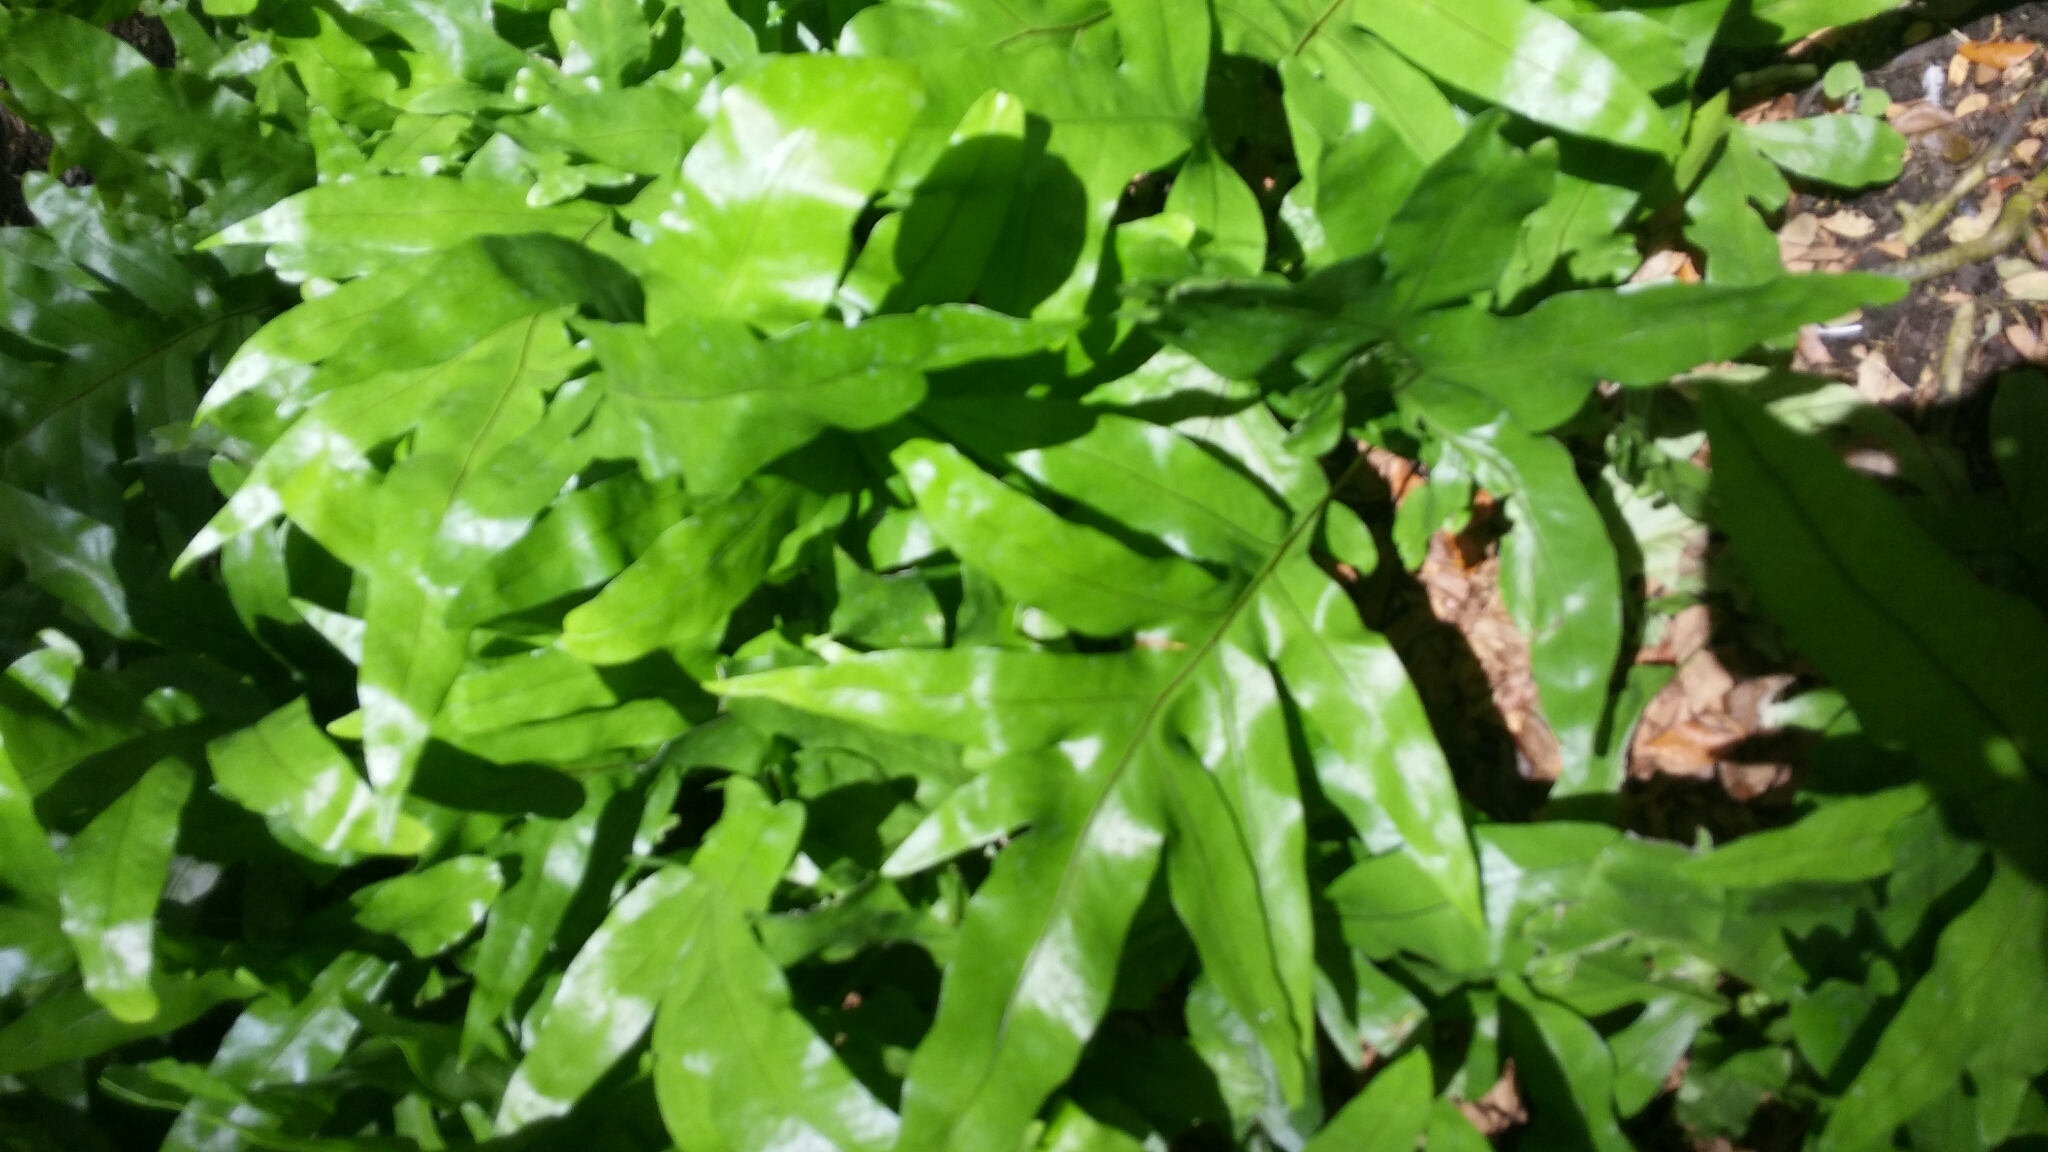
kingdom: Plantae
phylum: Tracheophyta
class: Polypodiopsida
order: Polypodiales
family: Polypodiaceae
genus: Microsorum
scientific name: Microsorum grossum
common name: Musk fern
